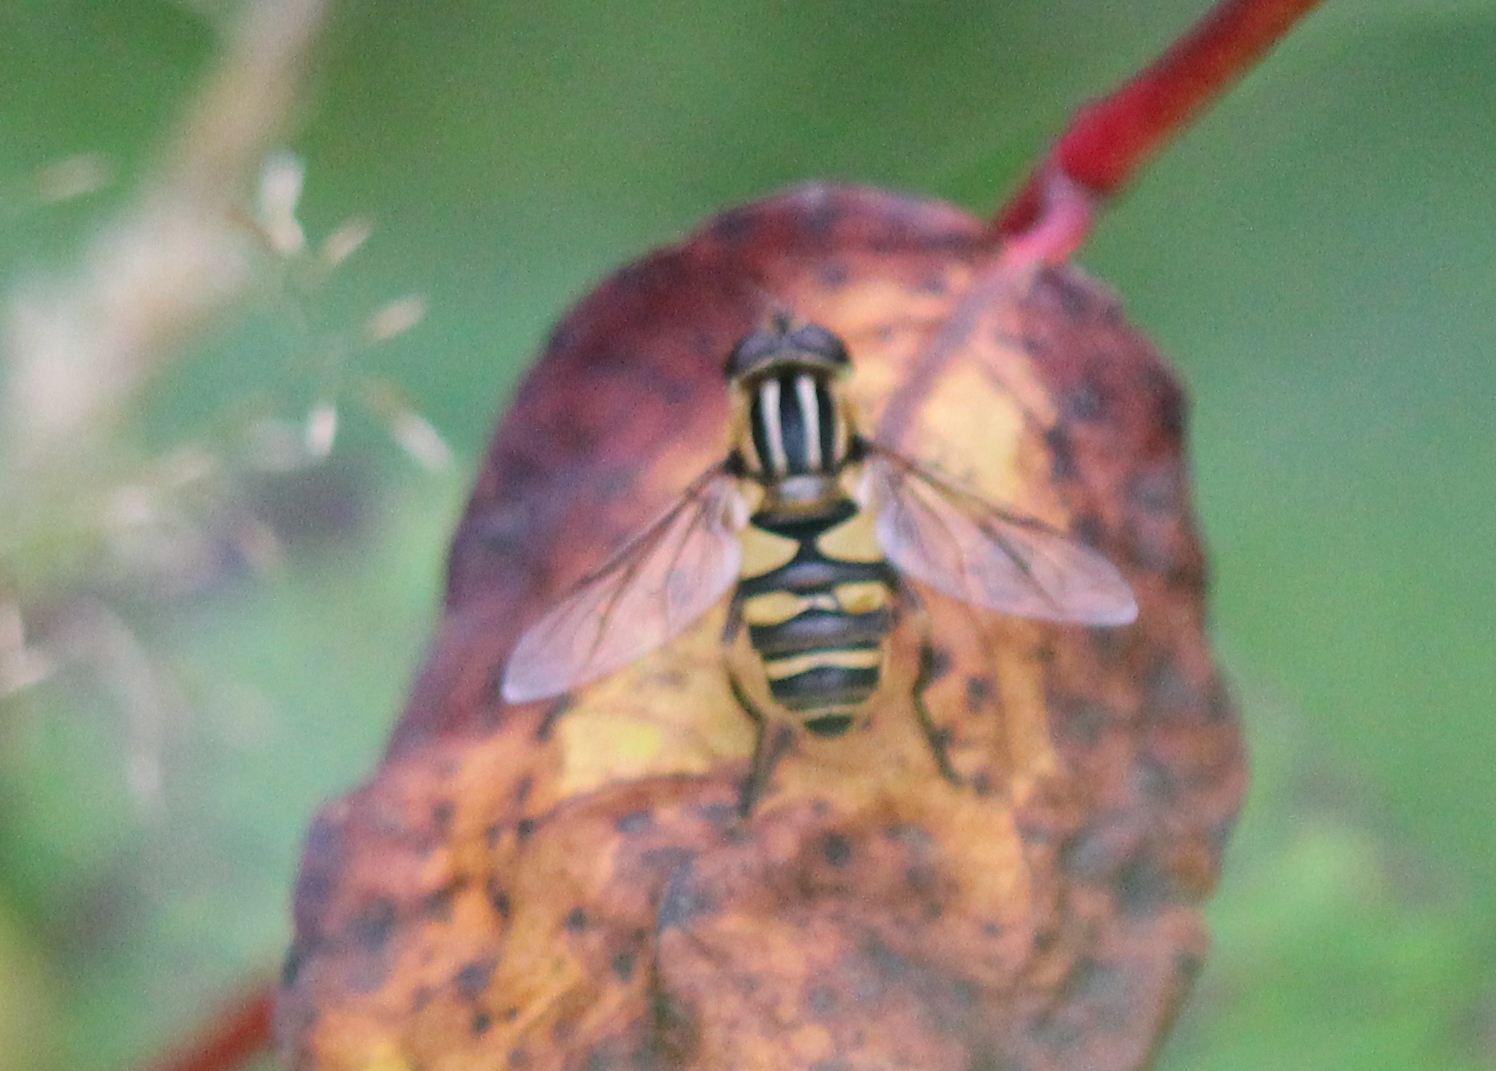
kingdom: Animalia
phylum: Arthropoda
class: Insecta
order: Diptera
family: Syrphidae
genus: Helophilus
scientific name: Helophilus fasciatus
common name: Narrow-headed marsh fly
